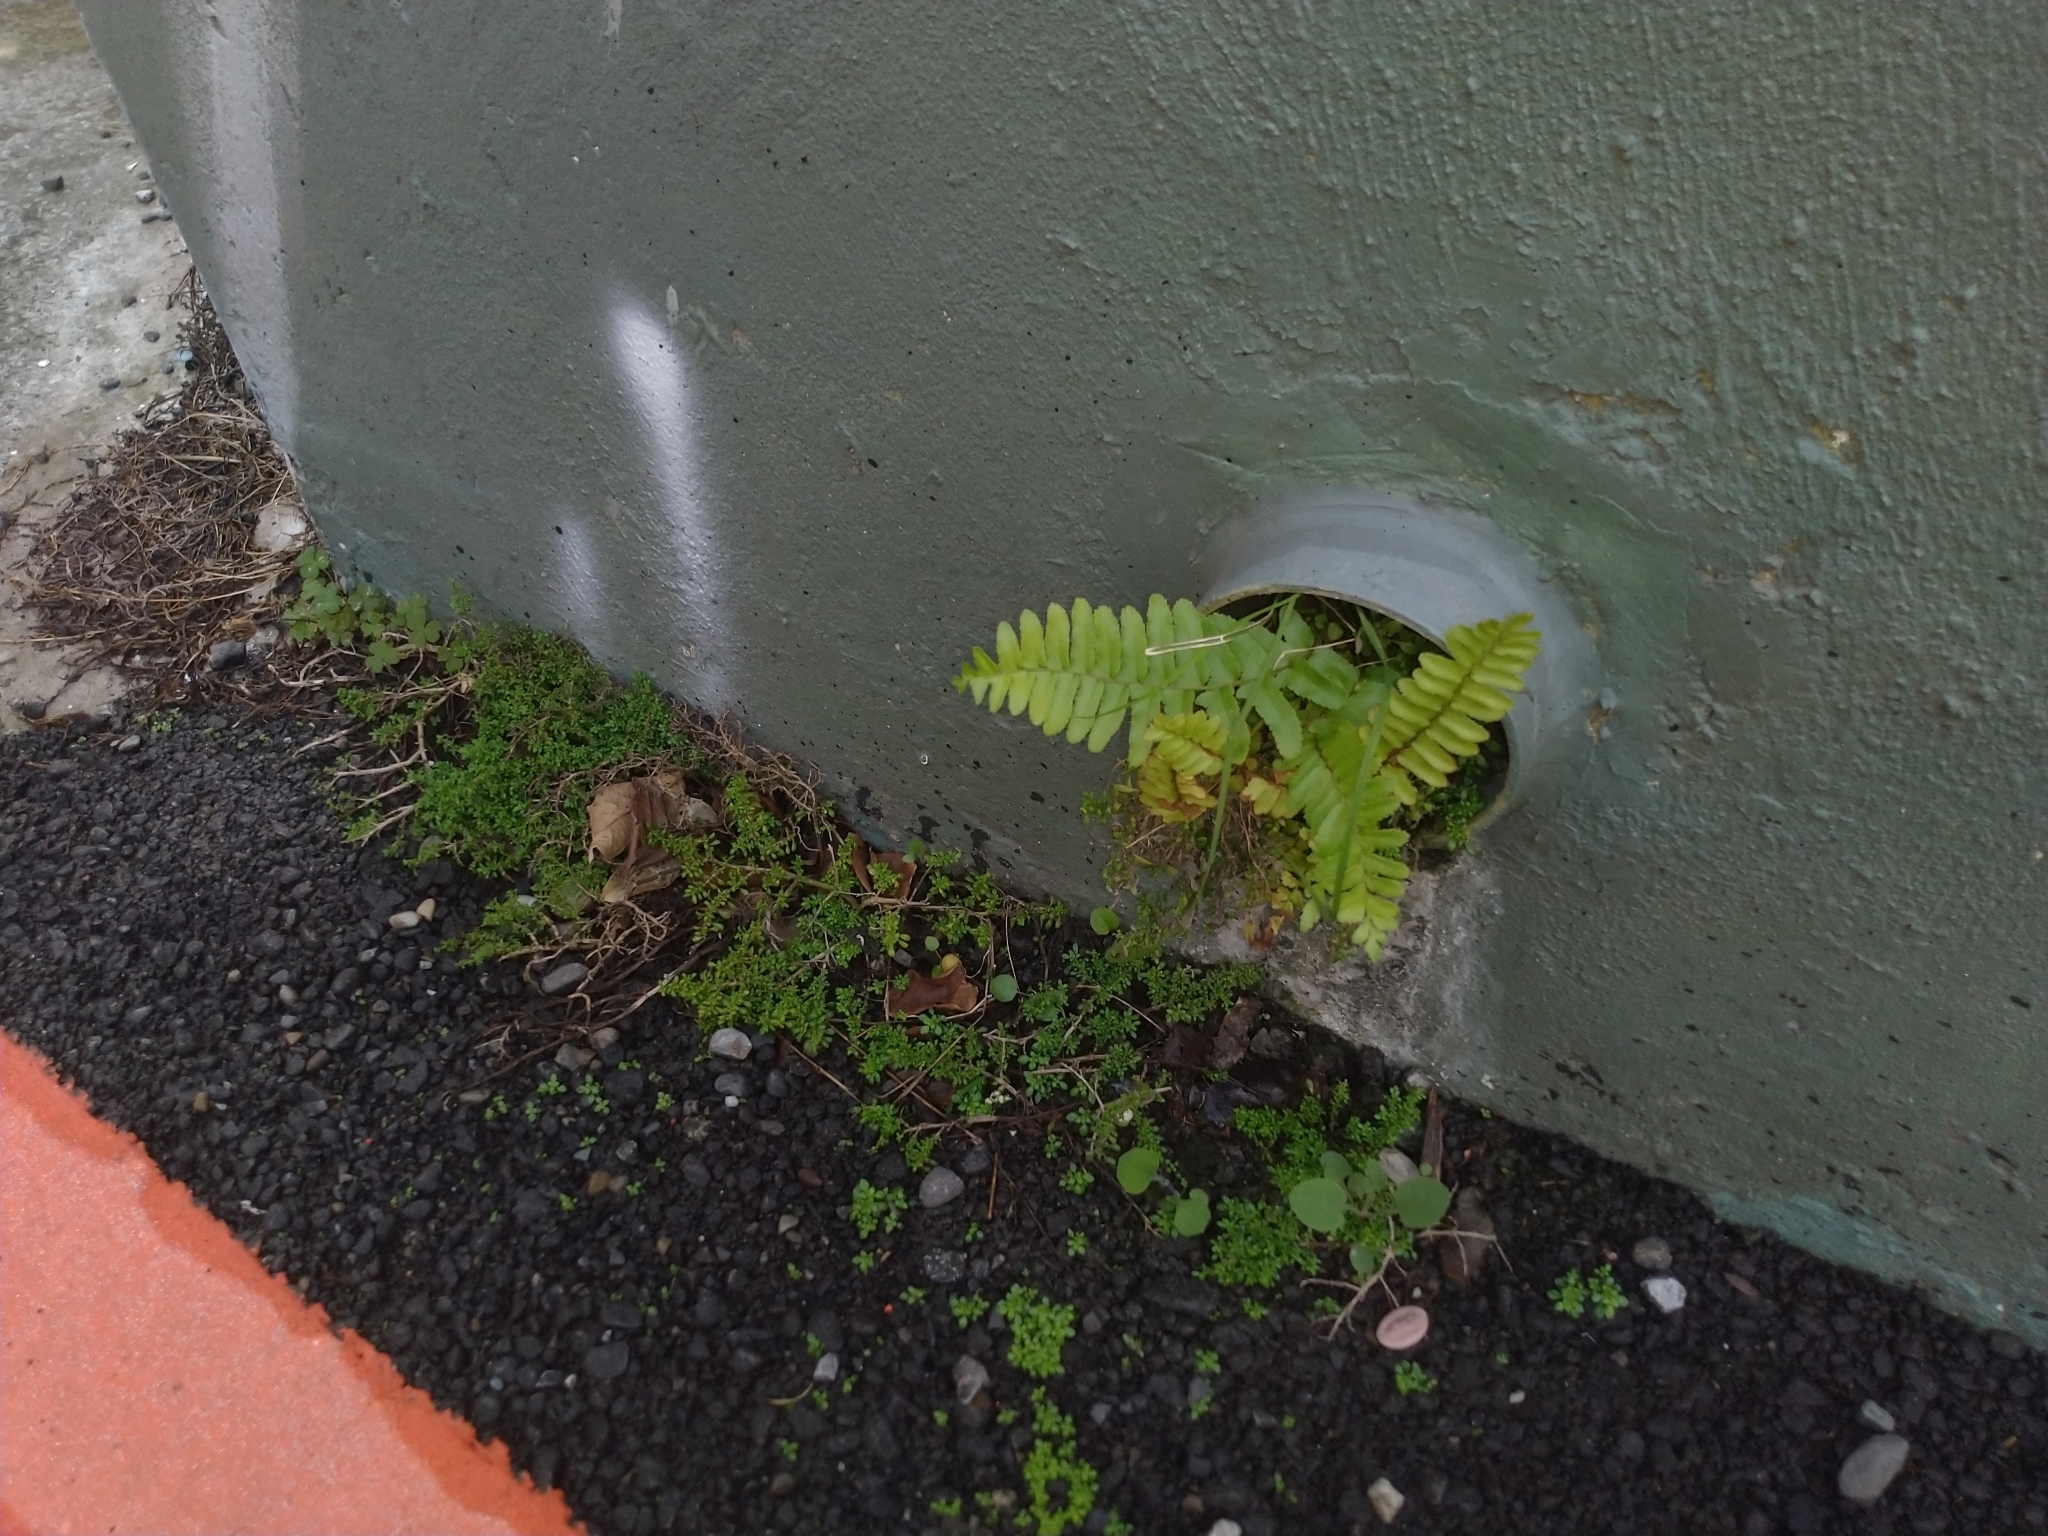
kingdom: Plantae
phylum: Tracheophyta
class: Polypodiopsida
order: Polypodiales
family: Nephrolepidaceae
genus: Nephrolepis
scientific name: Nephrolepis brownii
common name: Asian swordfern
